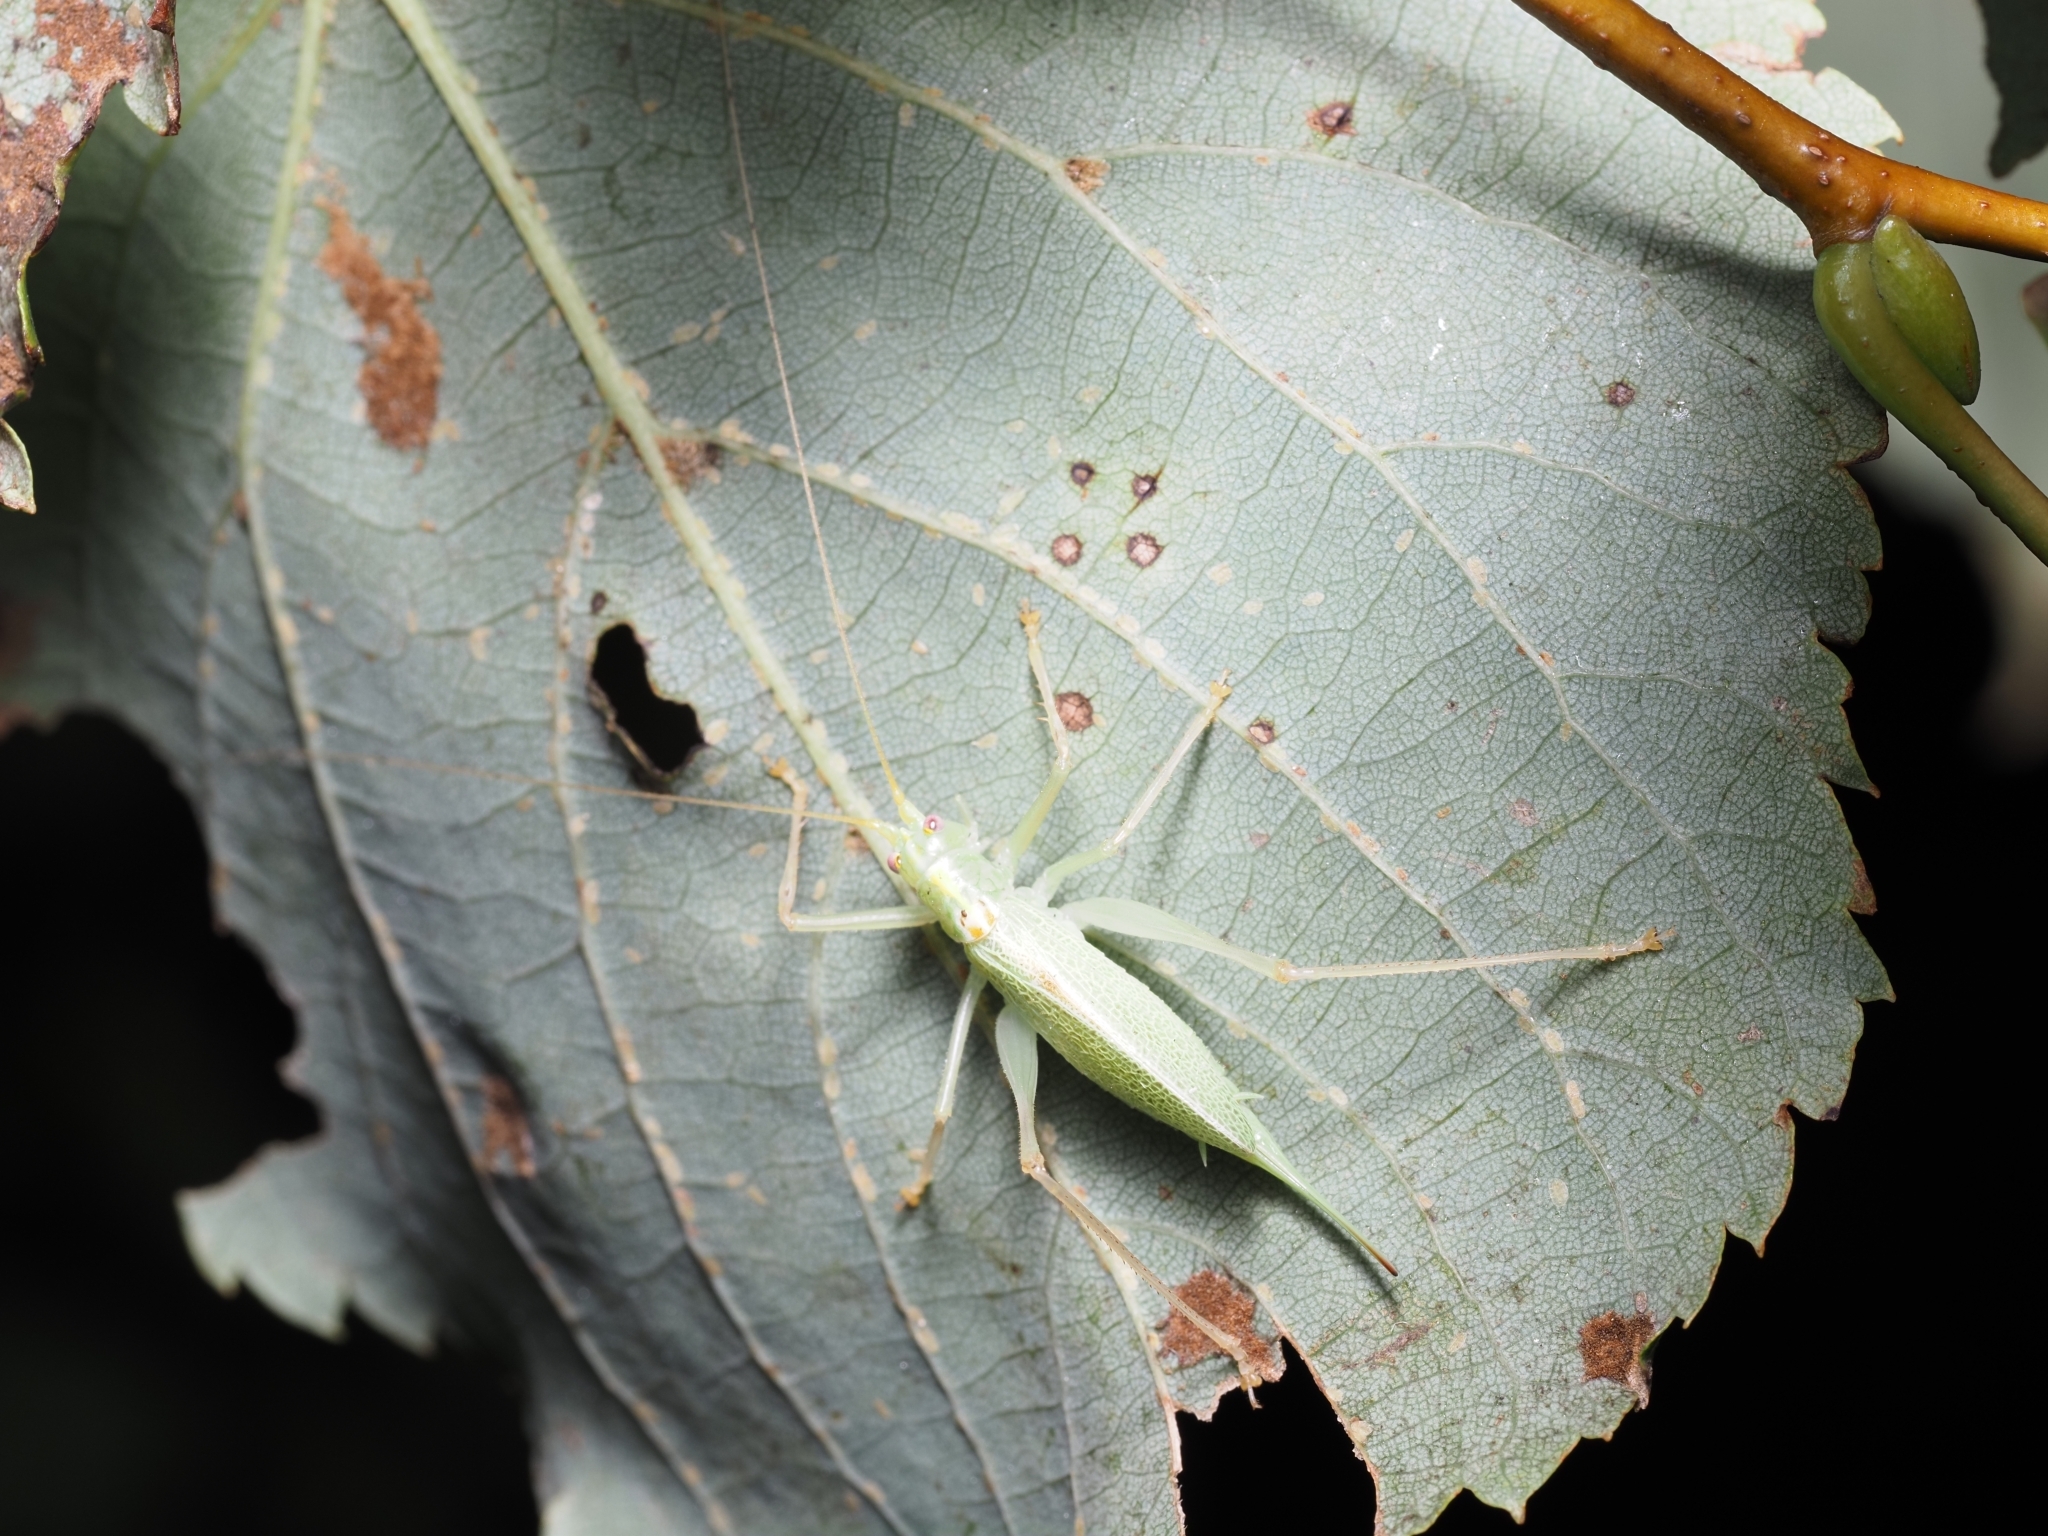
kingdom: Animalia
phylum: Arthropoda
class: Insecta
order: Orthoptera
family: Tettigoniidae
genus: Meconema
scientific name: Meconema thalassinum
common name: Oak bush-cricket
